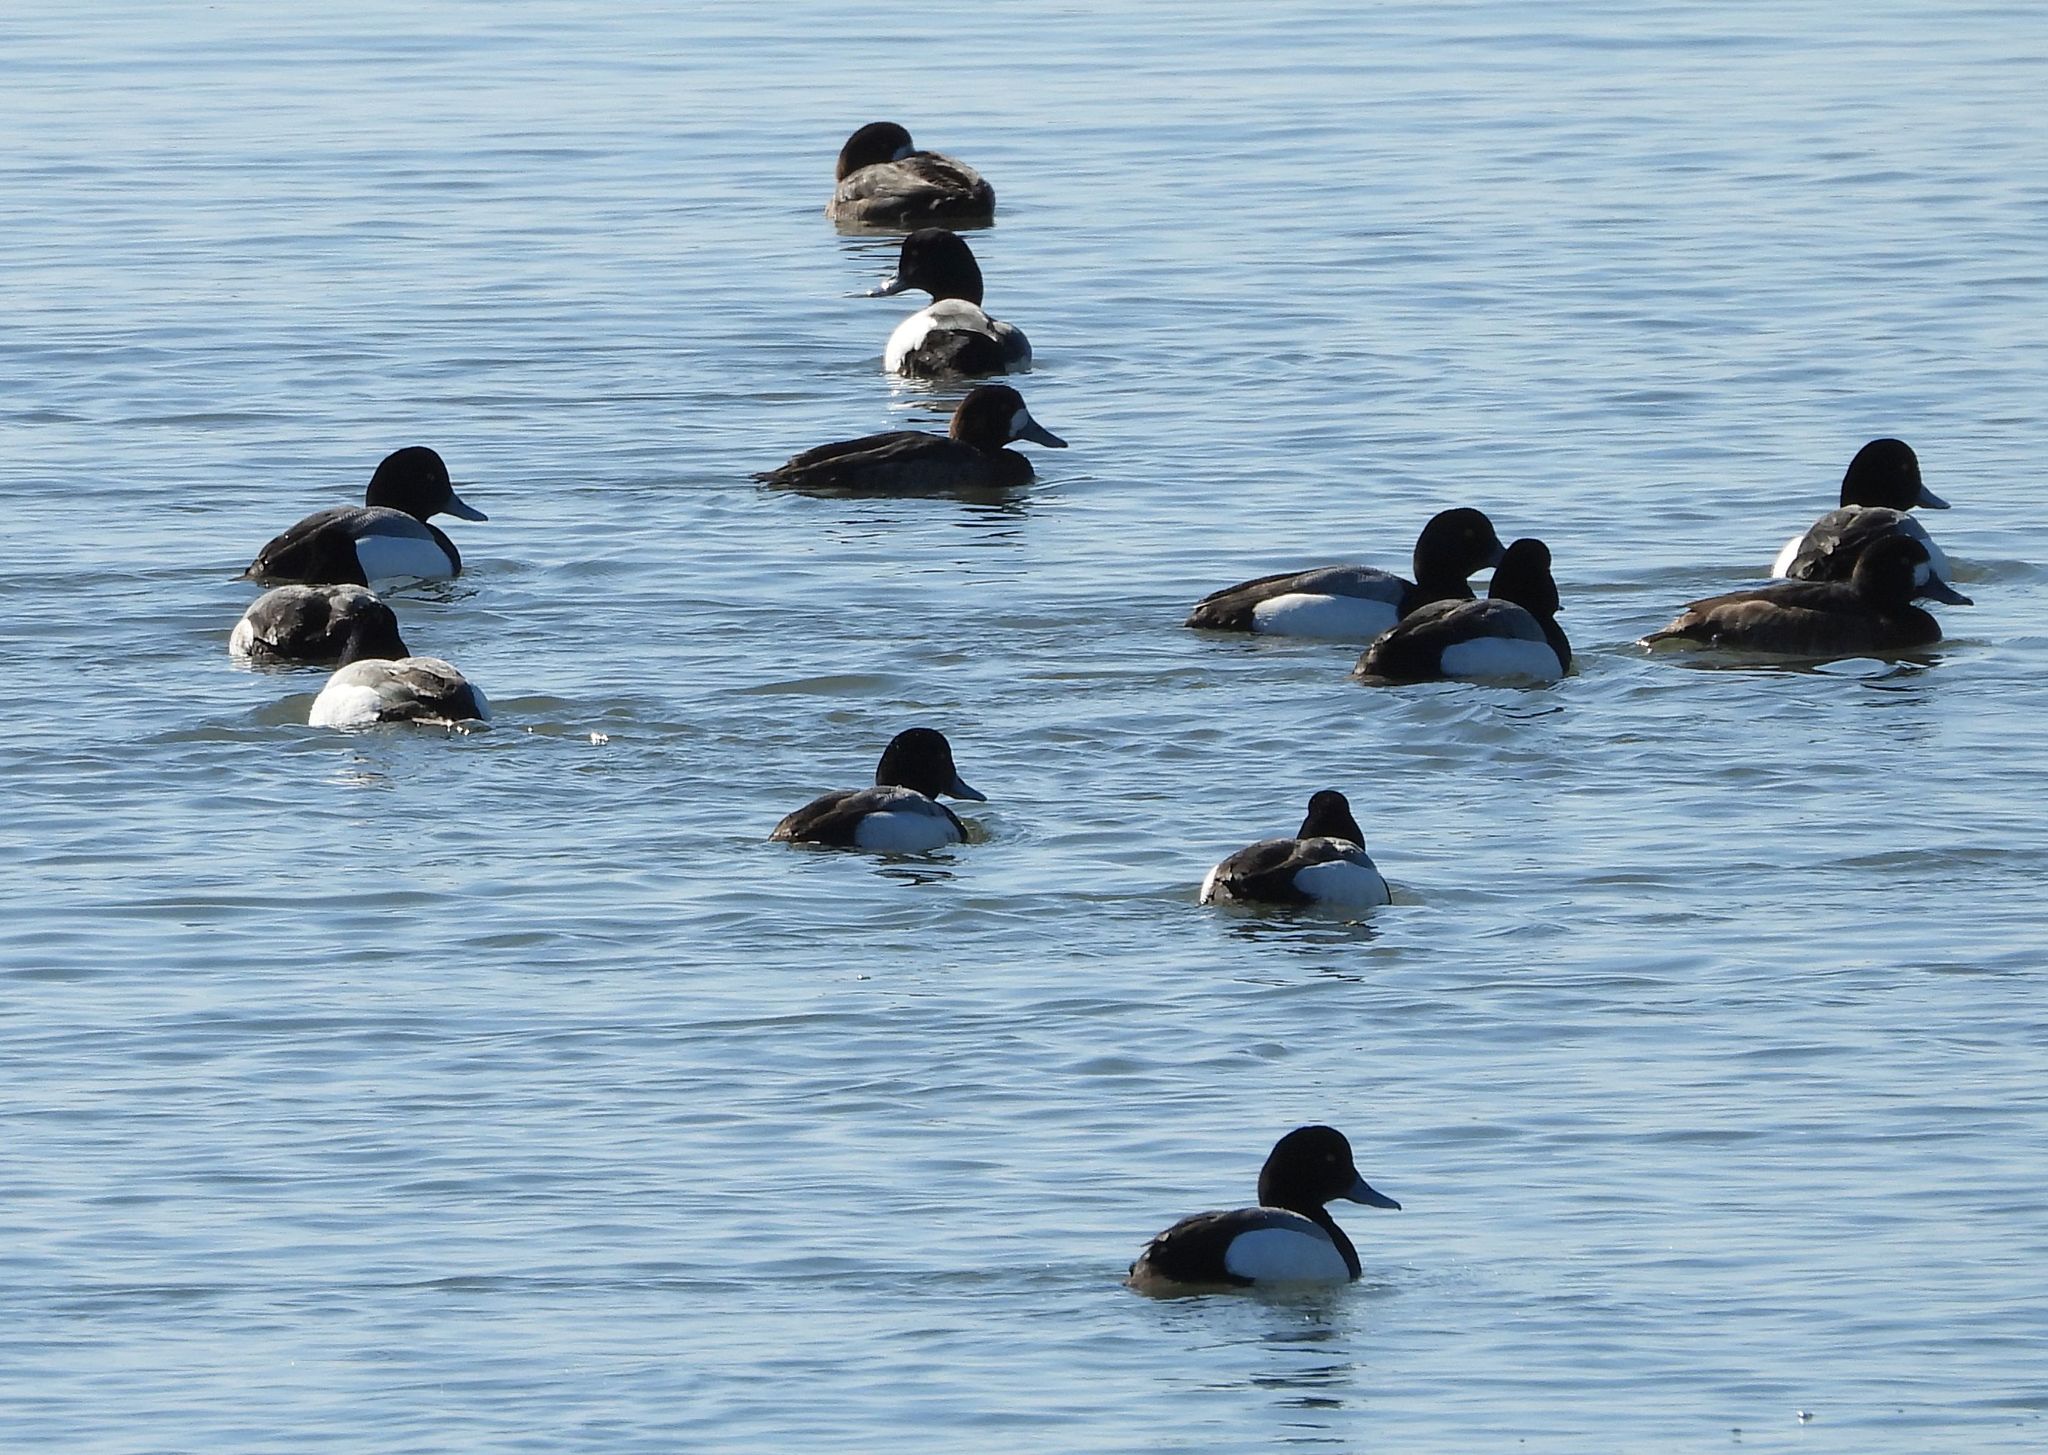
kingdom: Animalia
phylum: Chordata
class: Aves
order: Anseriformes
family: Anatidae
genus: Aythya
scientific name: Aythya marila
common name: Greater scaup
